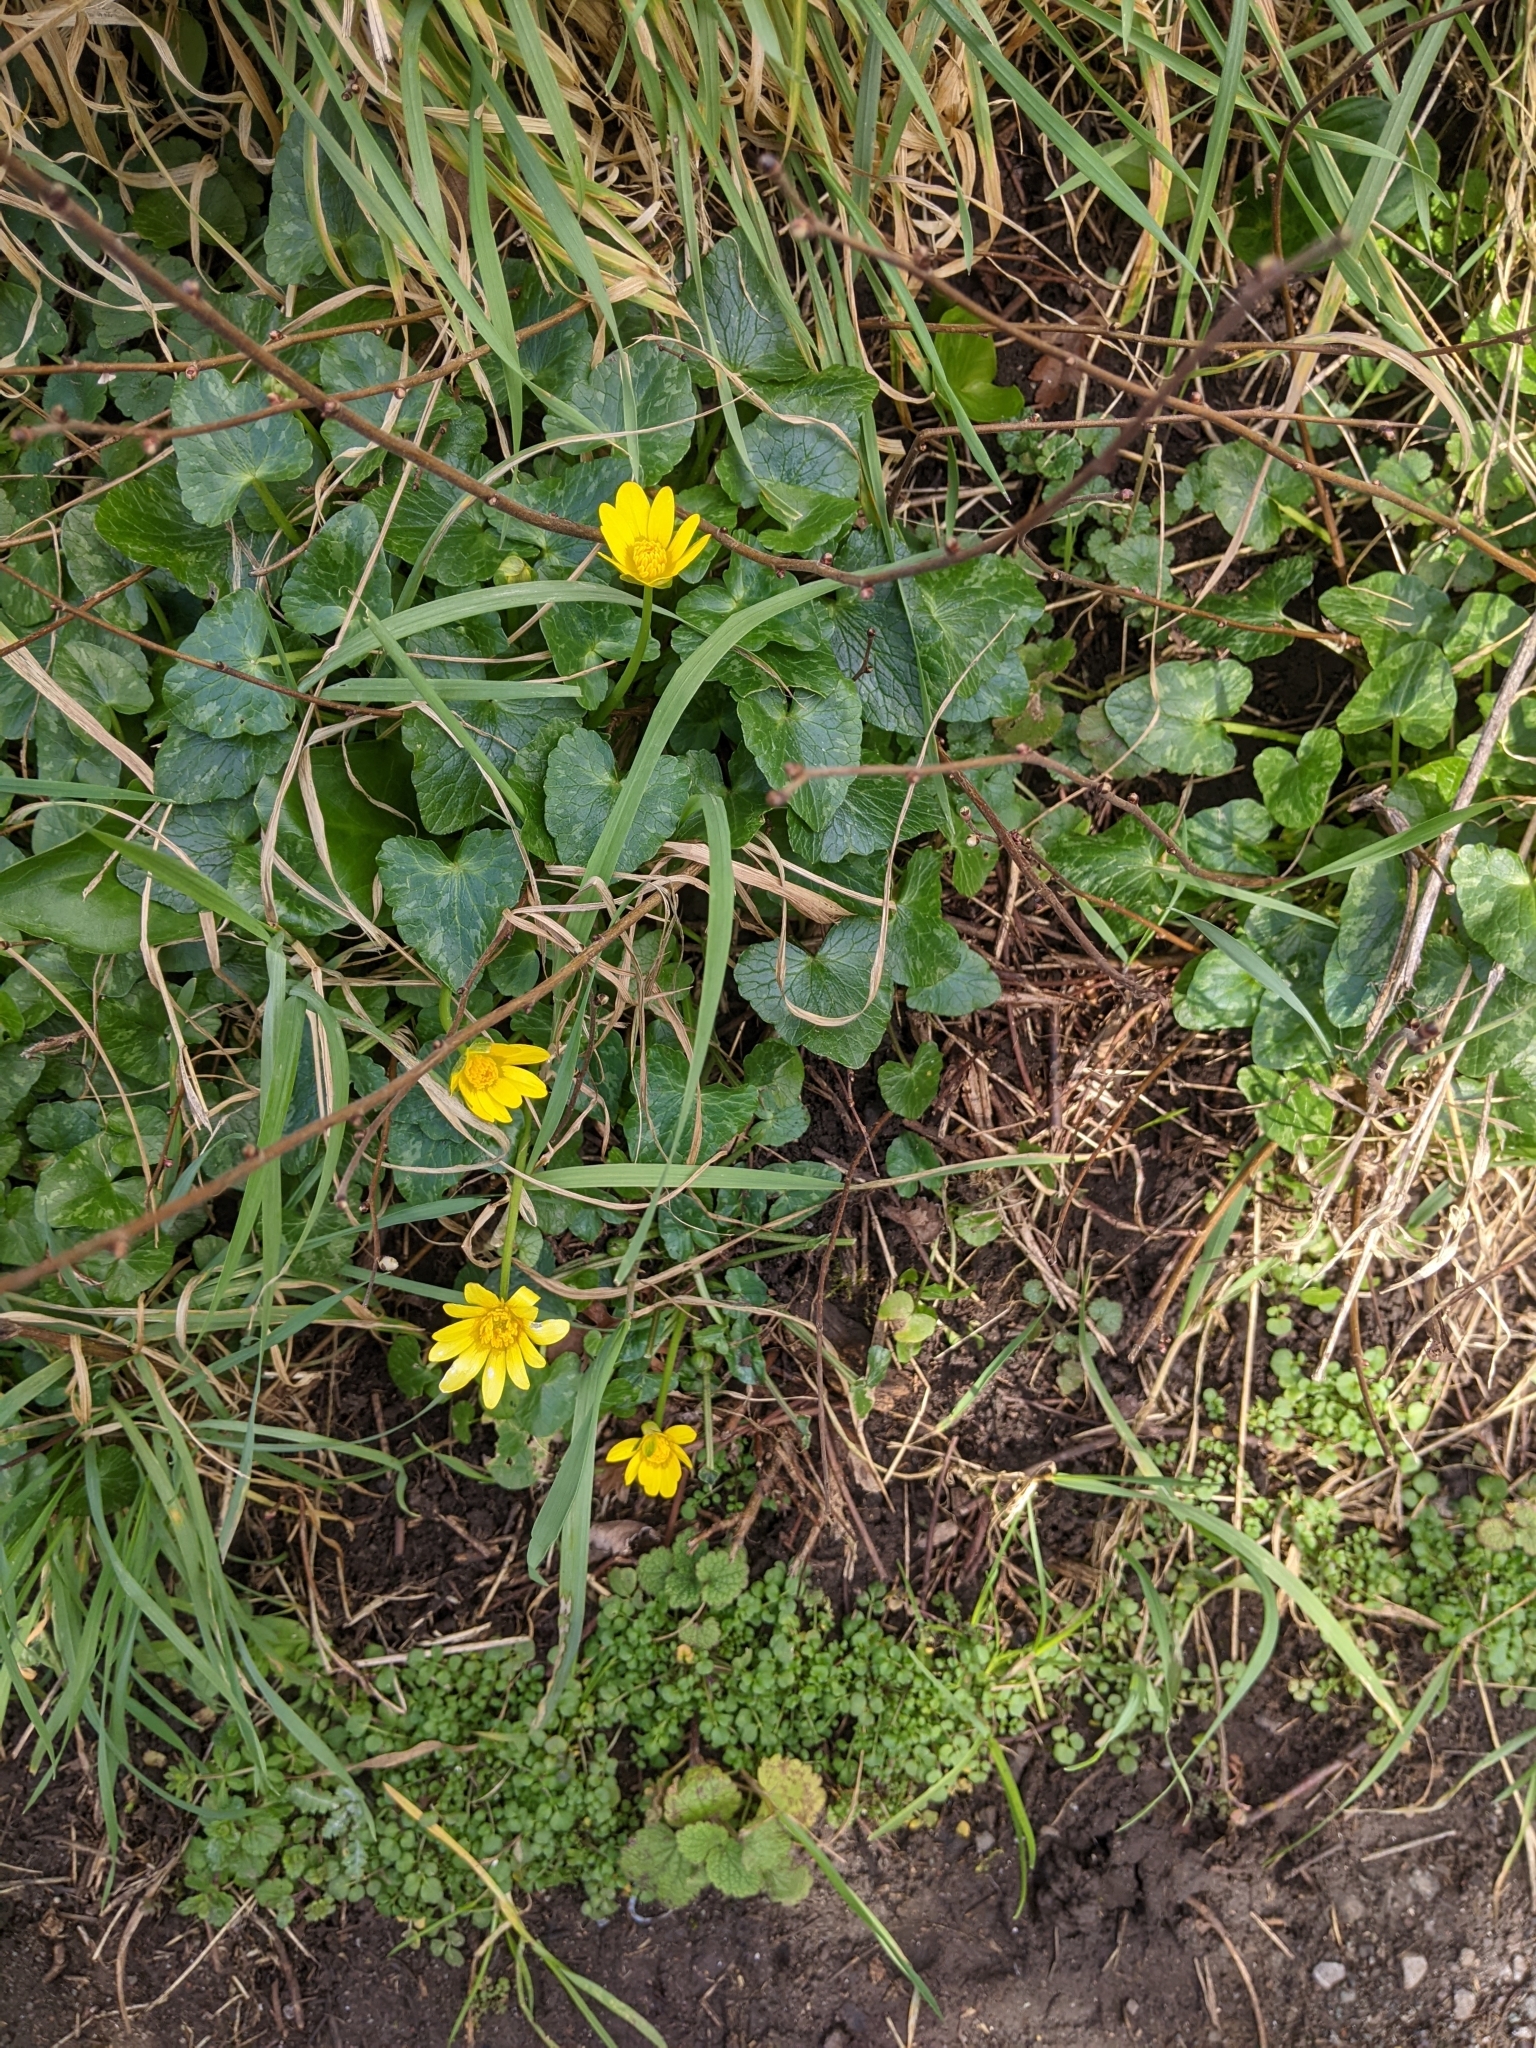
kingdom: Plantae
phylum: Tracheophyta
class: Magnoliopsida
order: Ranunculales
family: Ranunculaceae
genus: Ficaria
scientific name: Ficaria verna
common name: Lesser celandine
